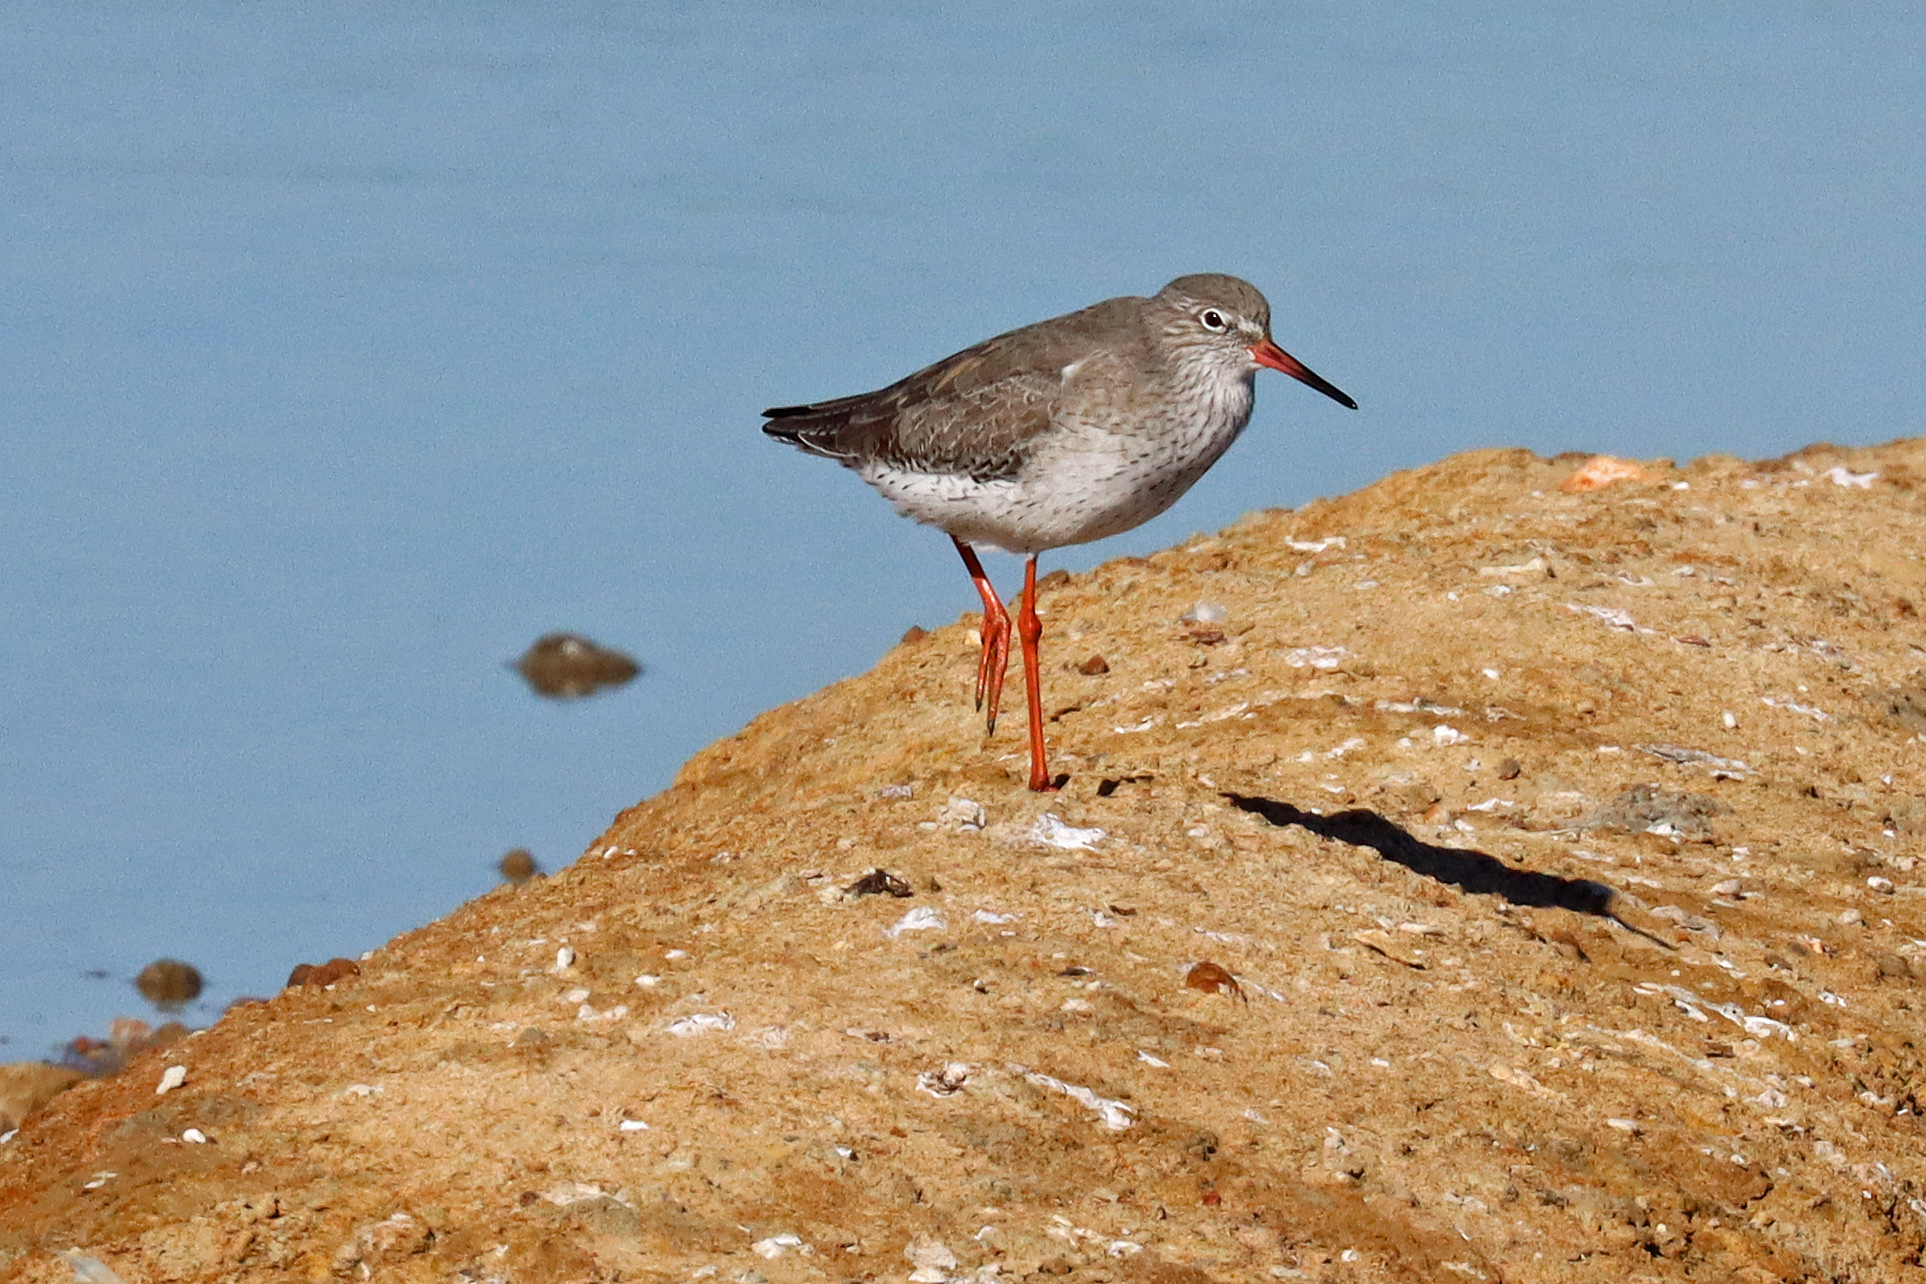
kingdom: Animalia
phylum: Chordata
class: Aves
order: Charadriiformes
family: Scolopacidae
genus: Tringa
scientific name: Tringa totanus
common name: Common redshank
